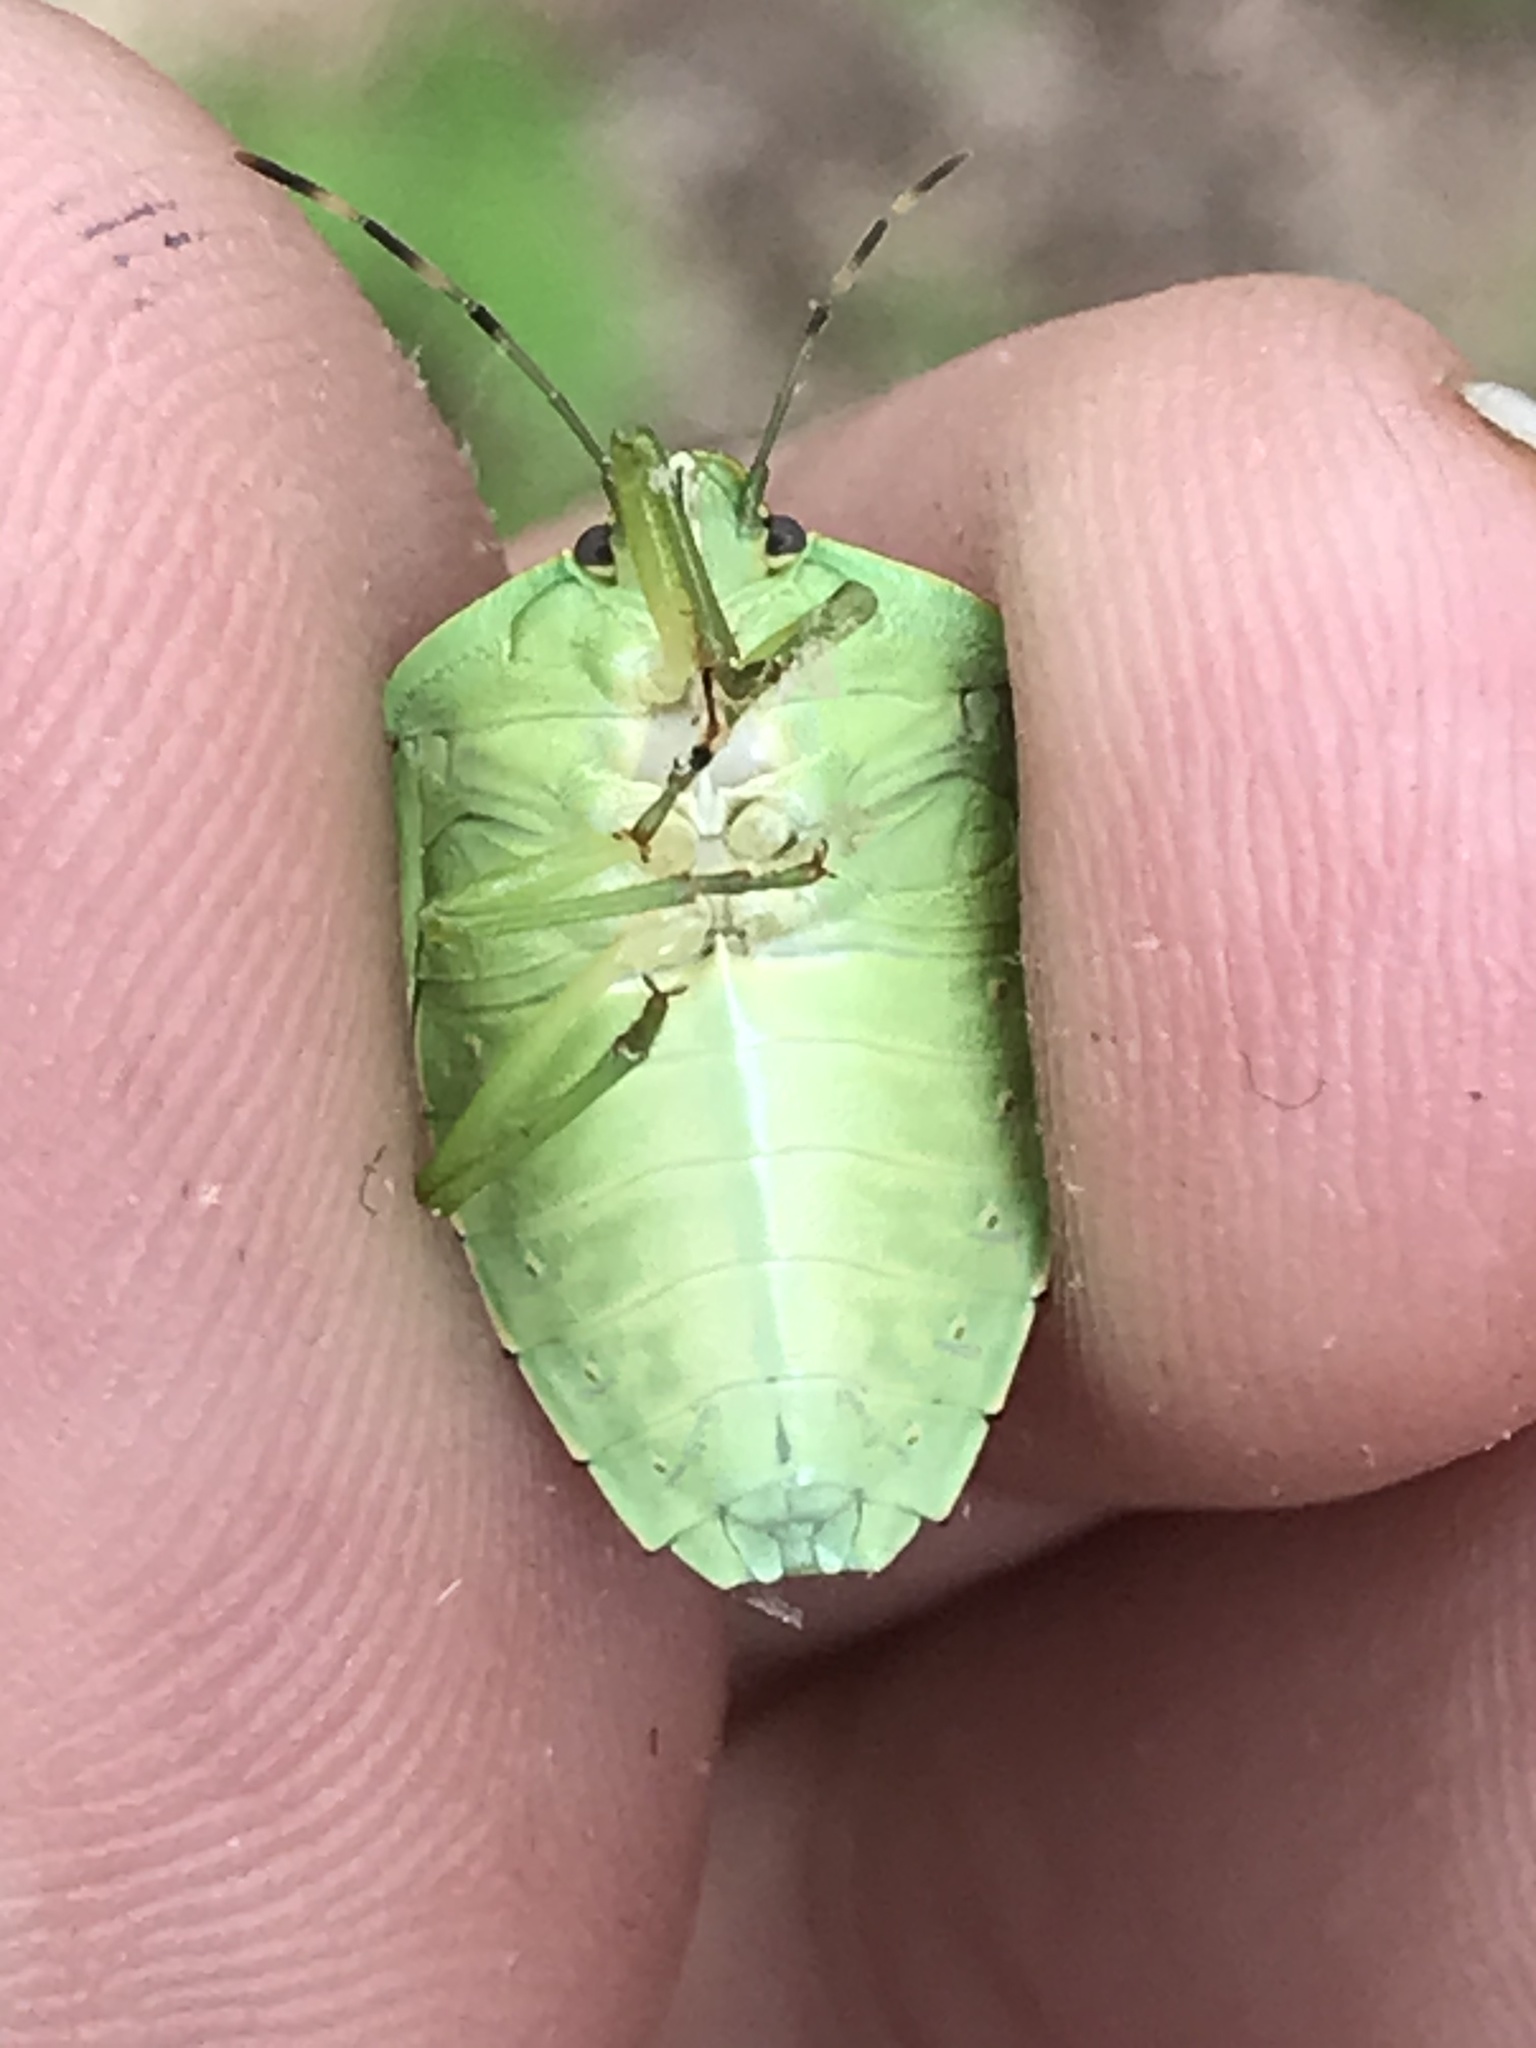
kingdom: Animalia
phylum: Arthropoda
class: Insecta
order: Hemiptera
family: Pentatomidae
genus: Chinavia
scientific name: Chinavia hilaris
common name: Green stink bug
